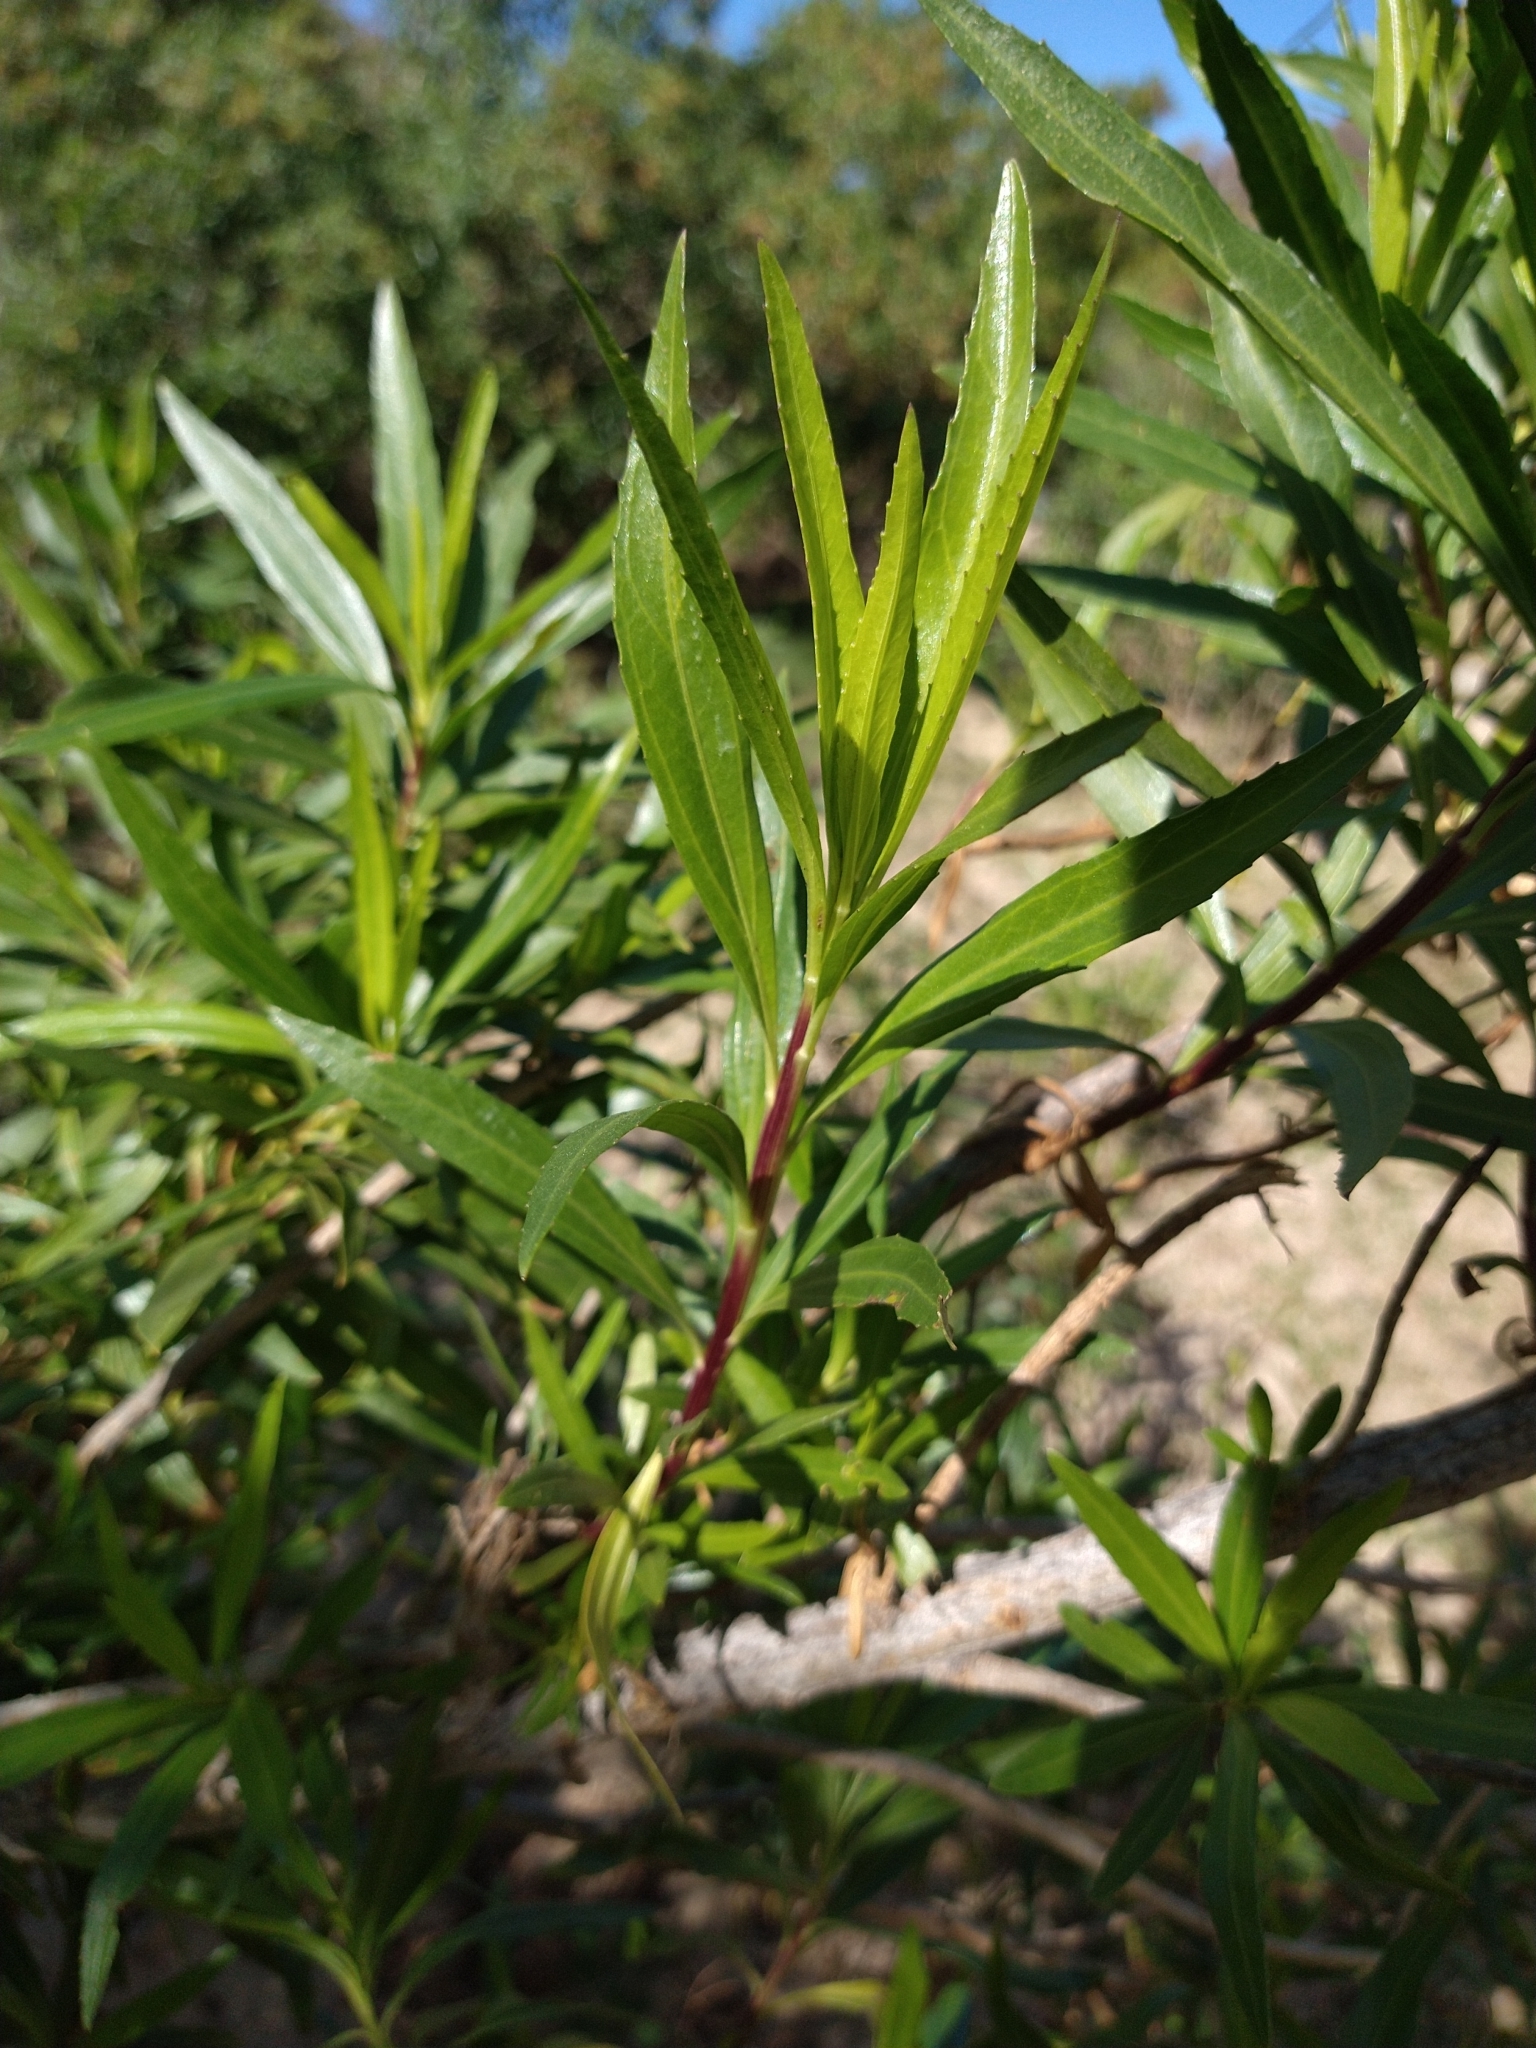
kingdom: Plantae
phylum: Tracheophyta
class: Magnoliopsida
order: Asterales
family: Asteraceae
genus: Baccharis
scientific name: Baccharis salicifolia
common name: Sticky baccharis
